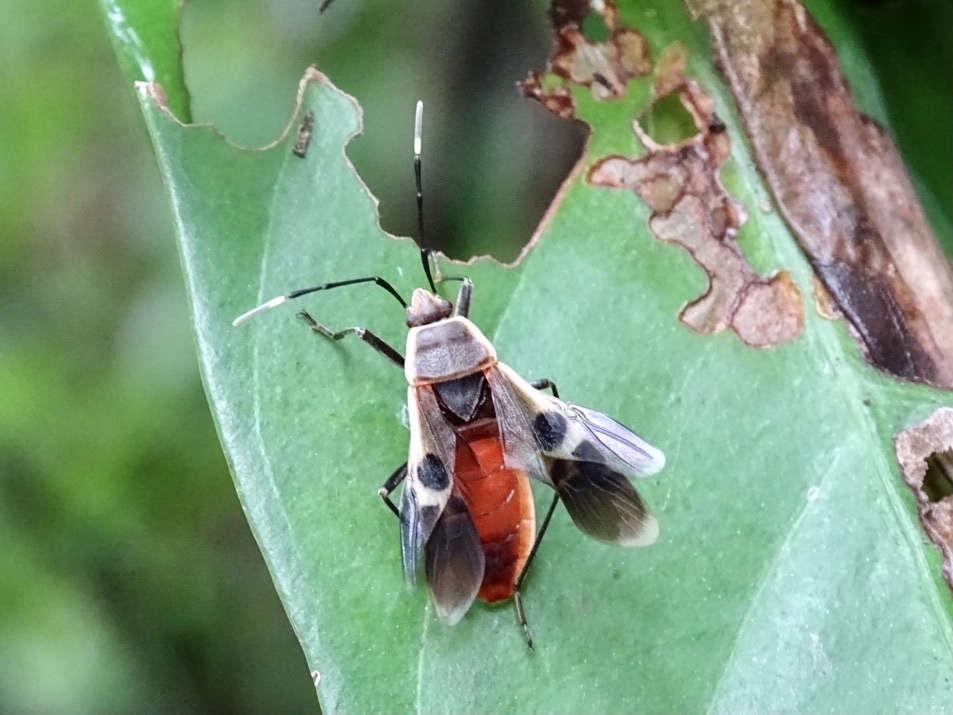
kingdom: Animalia
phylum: Arthropoda
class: Insecta
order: Hemiptera
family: Largidae
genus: Physopelta
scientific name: Physopelta gutta
